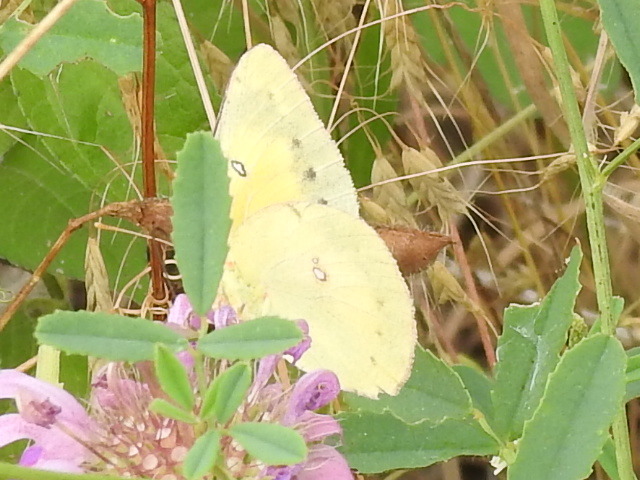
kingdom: Animalia
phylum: Arthropoda
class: Insecta
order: Lepidoptera
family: Pieridae
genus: Colias
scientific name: Colias eurytheme
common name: Alfalfa butterfly
